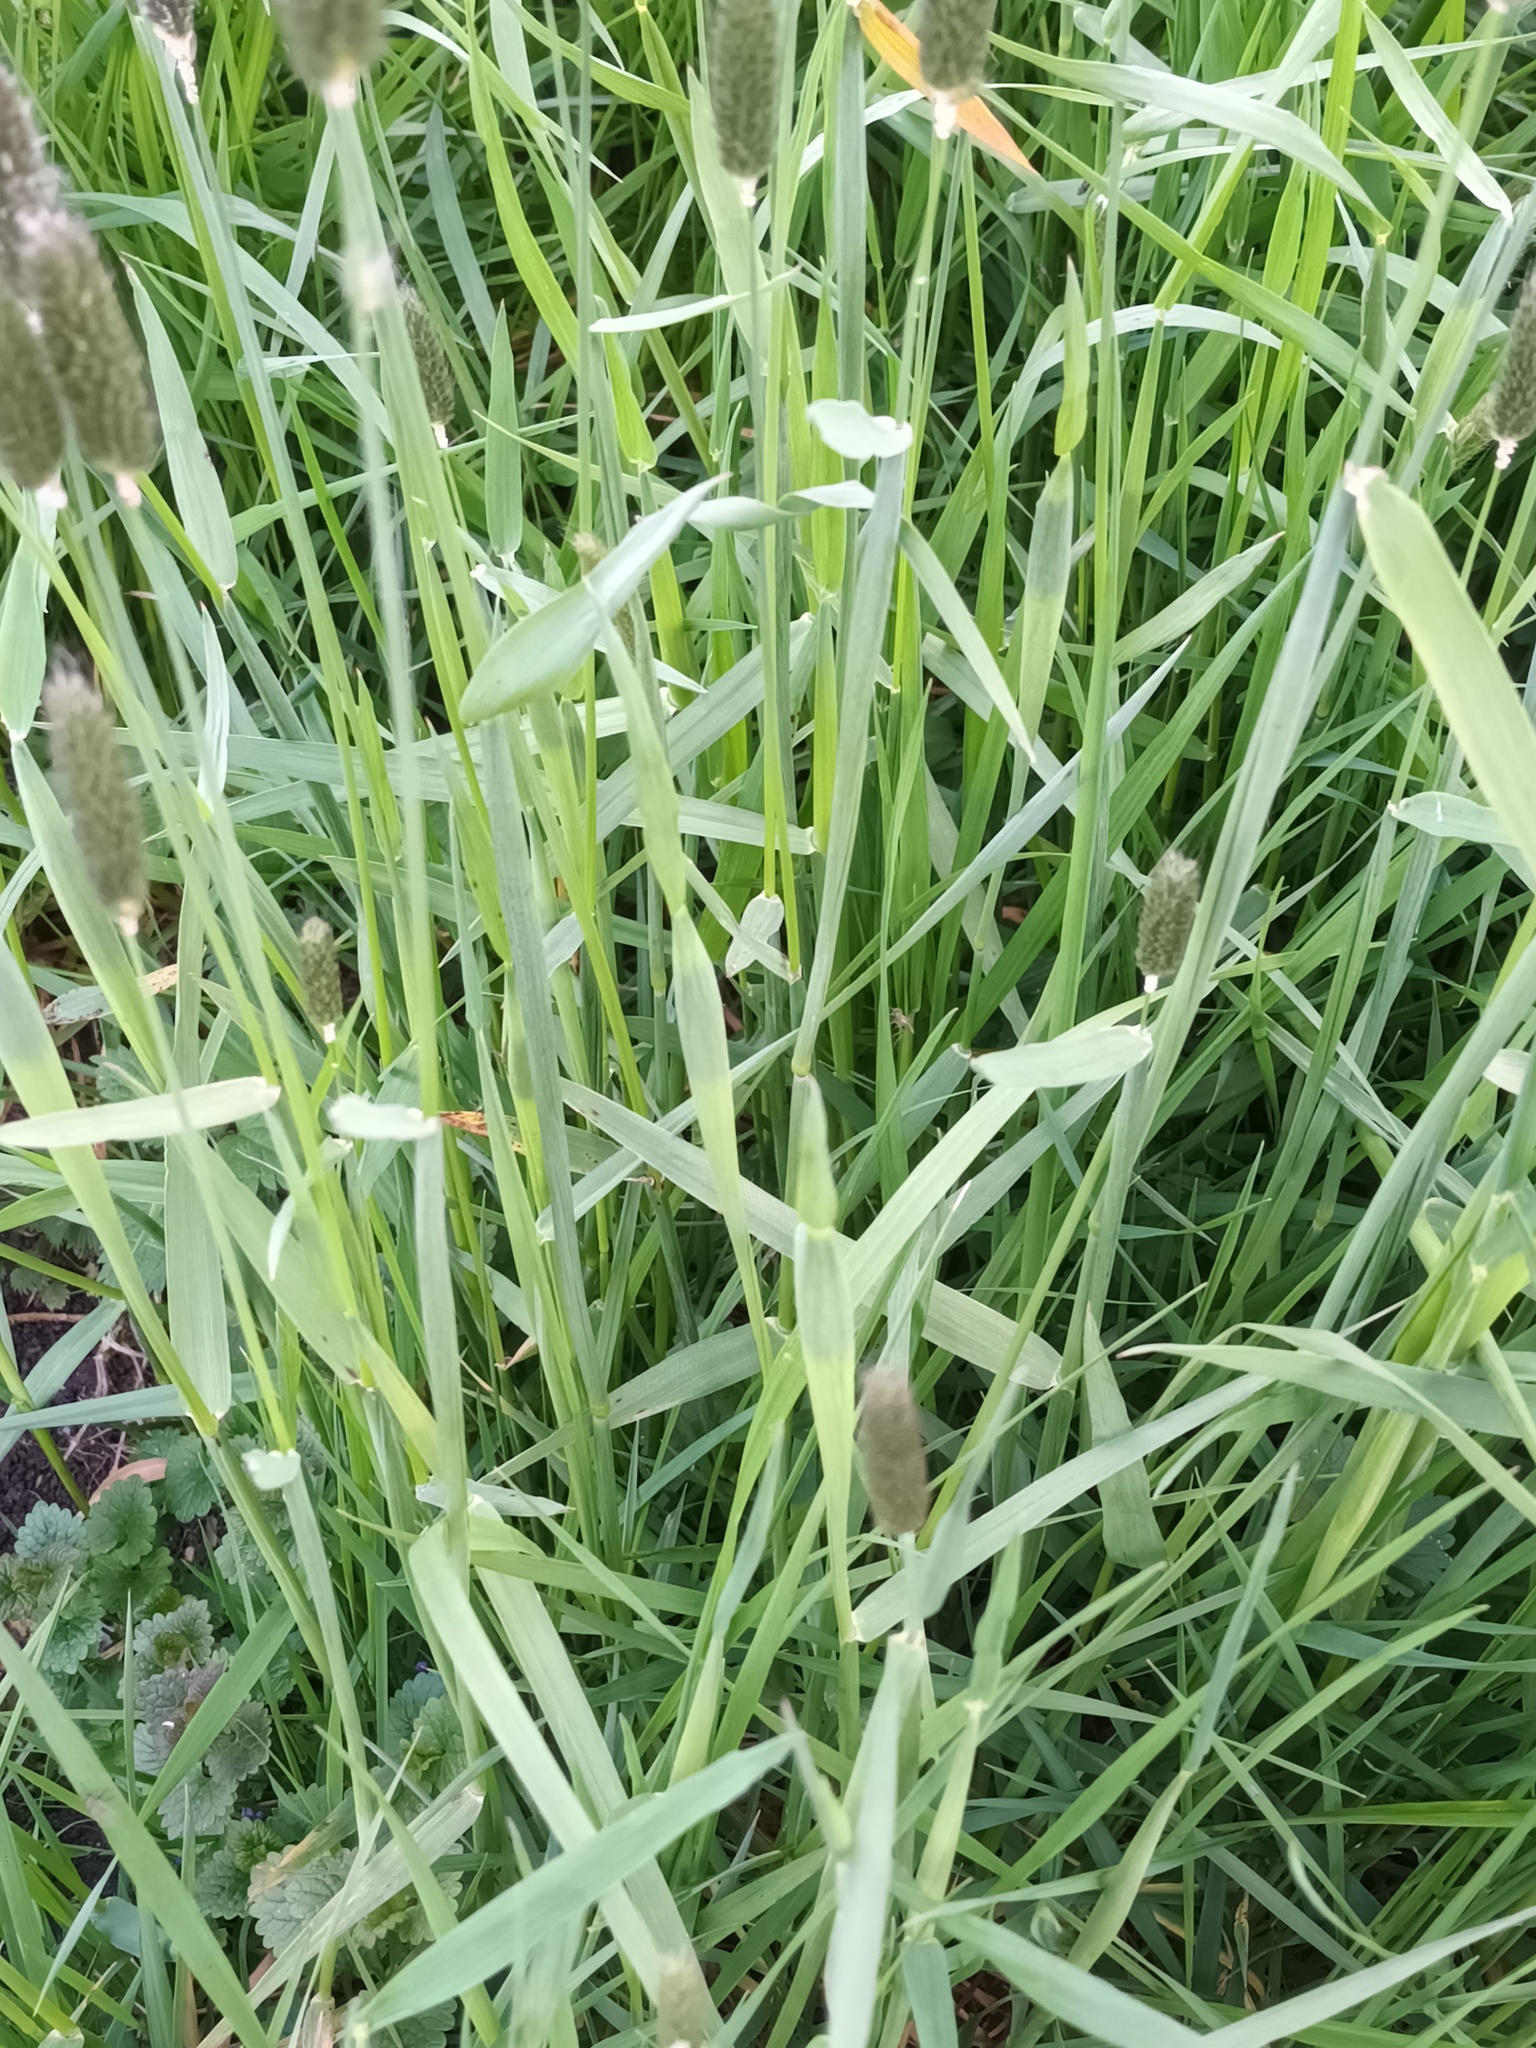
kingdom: Plantae
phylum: Tracheophyta
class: Liliopsida
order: Poales
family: Poaceae
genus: Alopecurus
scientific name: Alopecurus pratensis
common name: Meadow foxtail
